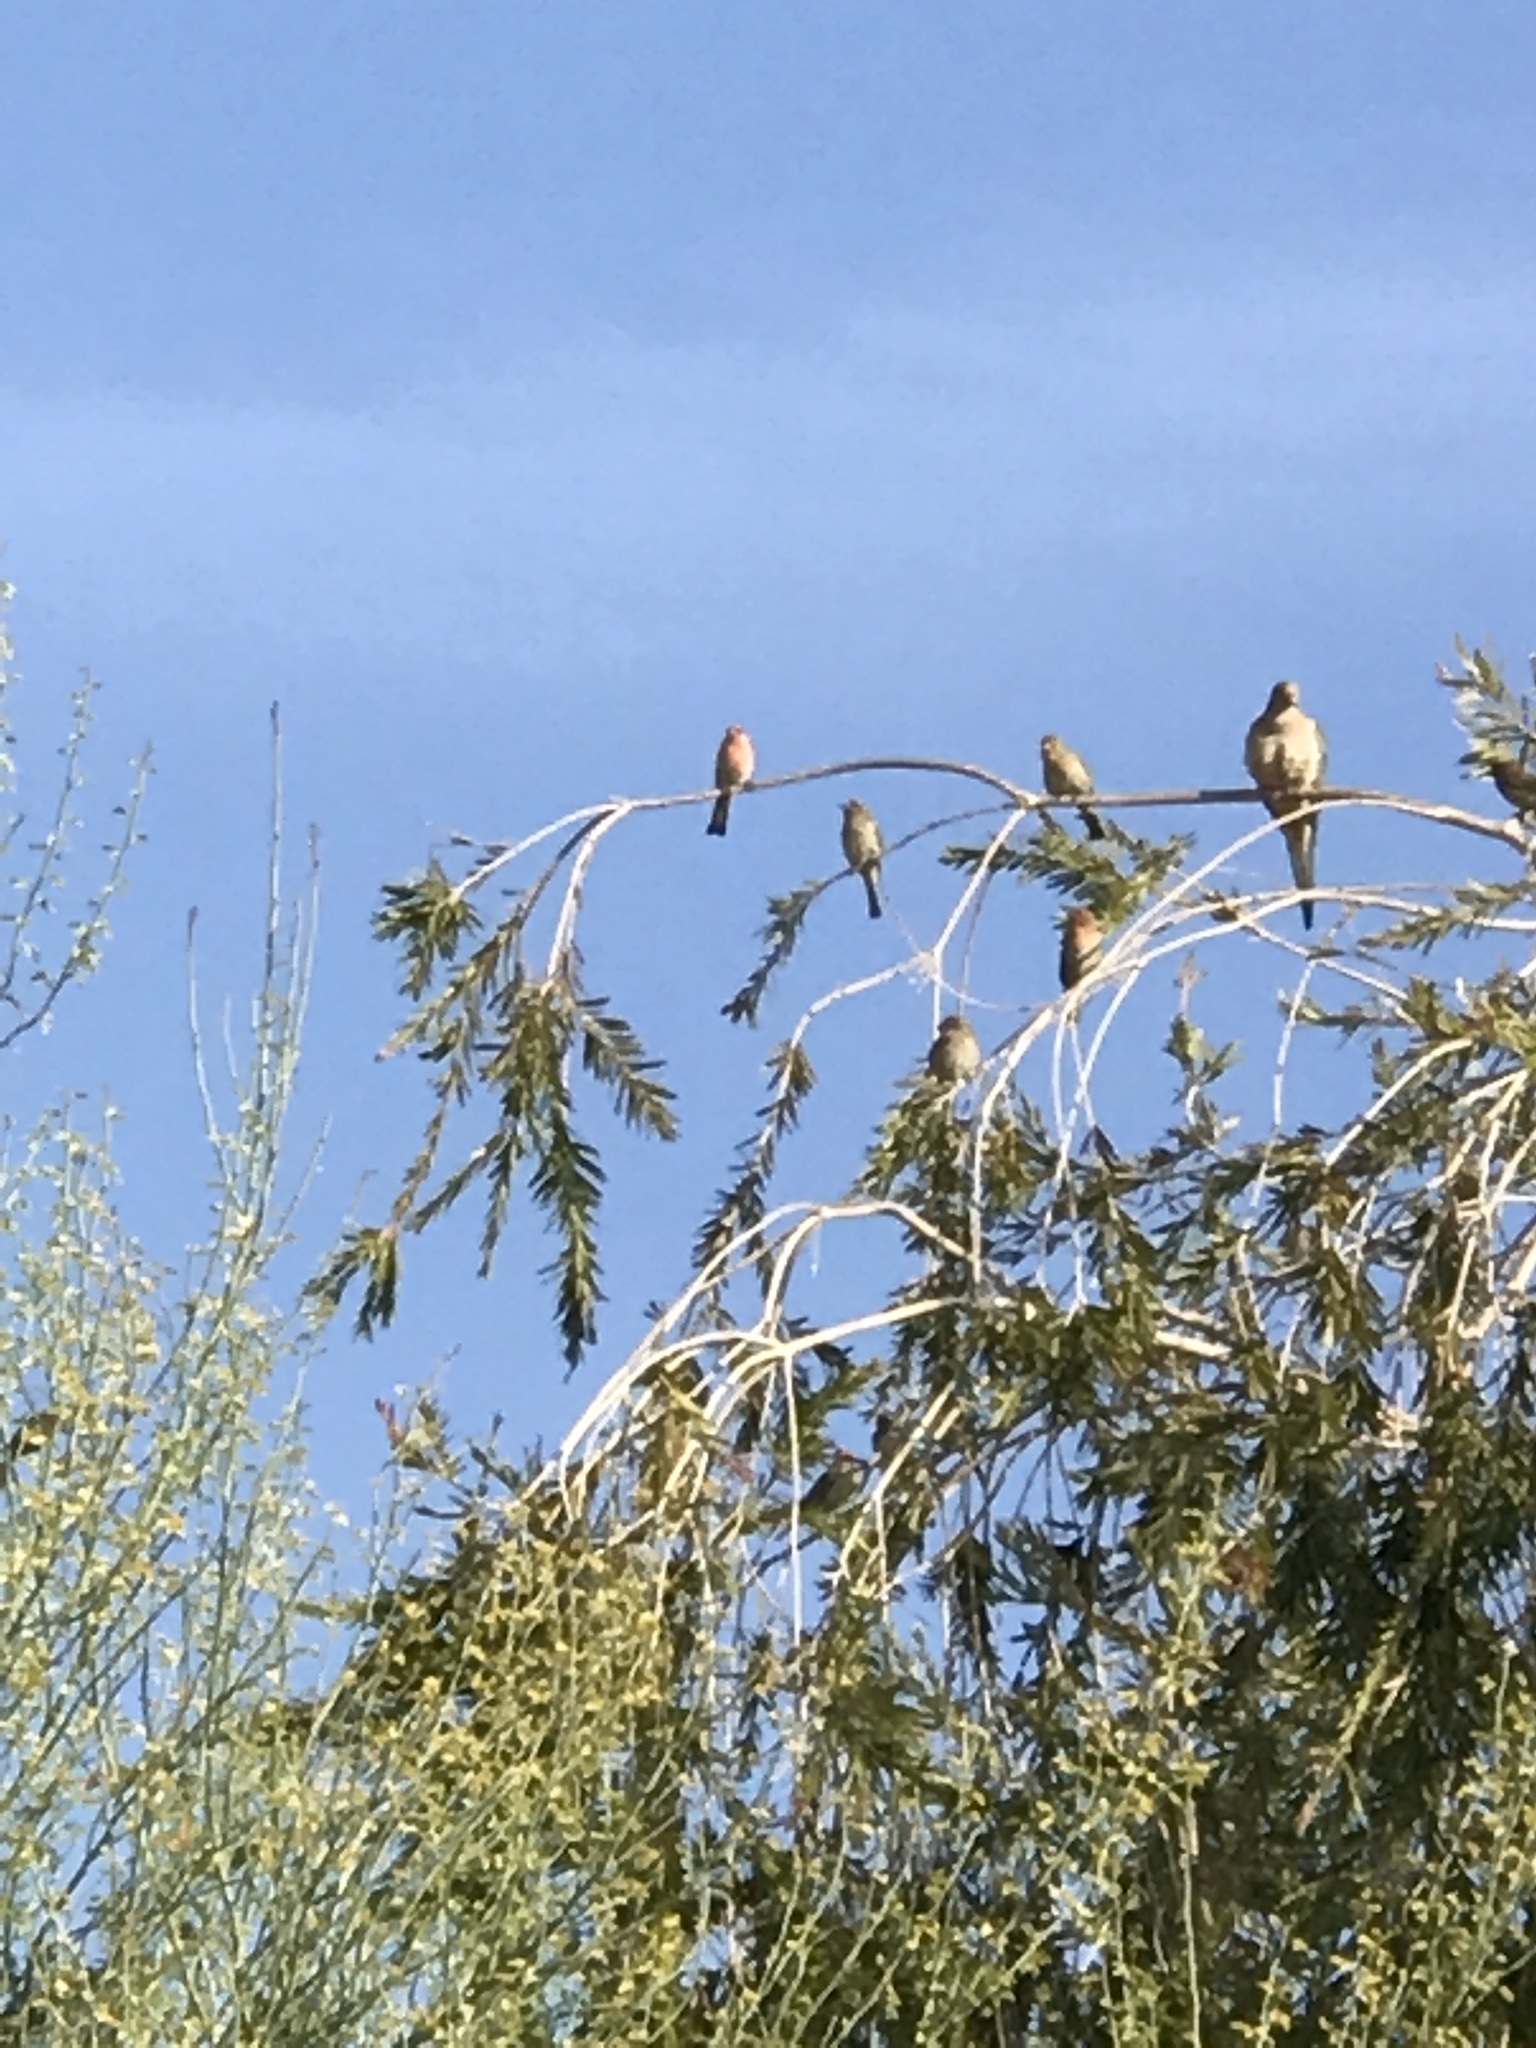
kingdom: Animalia
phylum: Chordata
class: Aves
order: Passeriformes
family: Fringillidae
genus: Haemorhous
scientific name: Haemorhous mexicanus
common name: House finch
